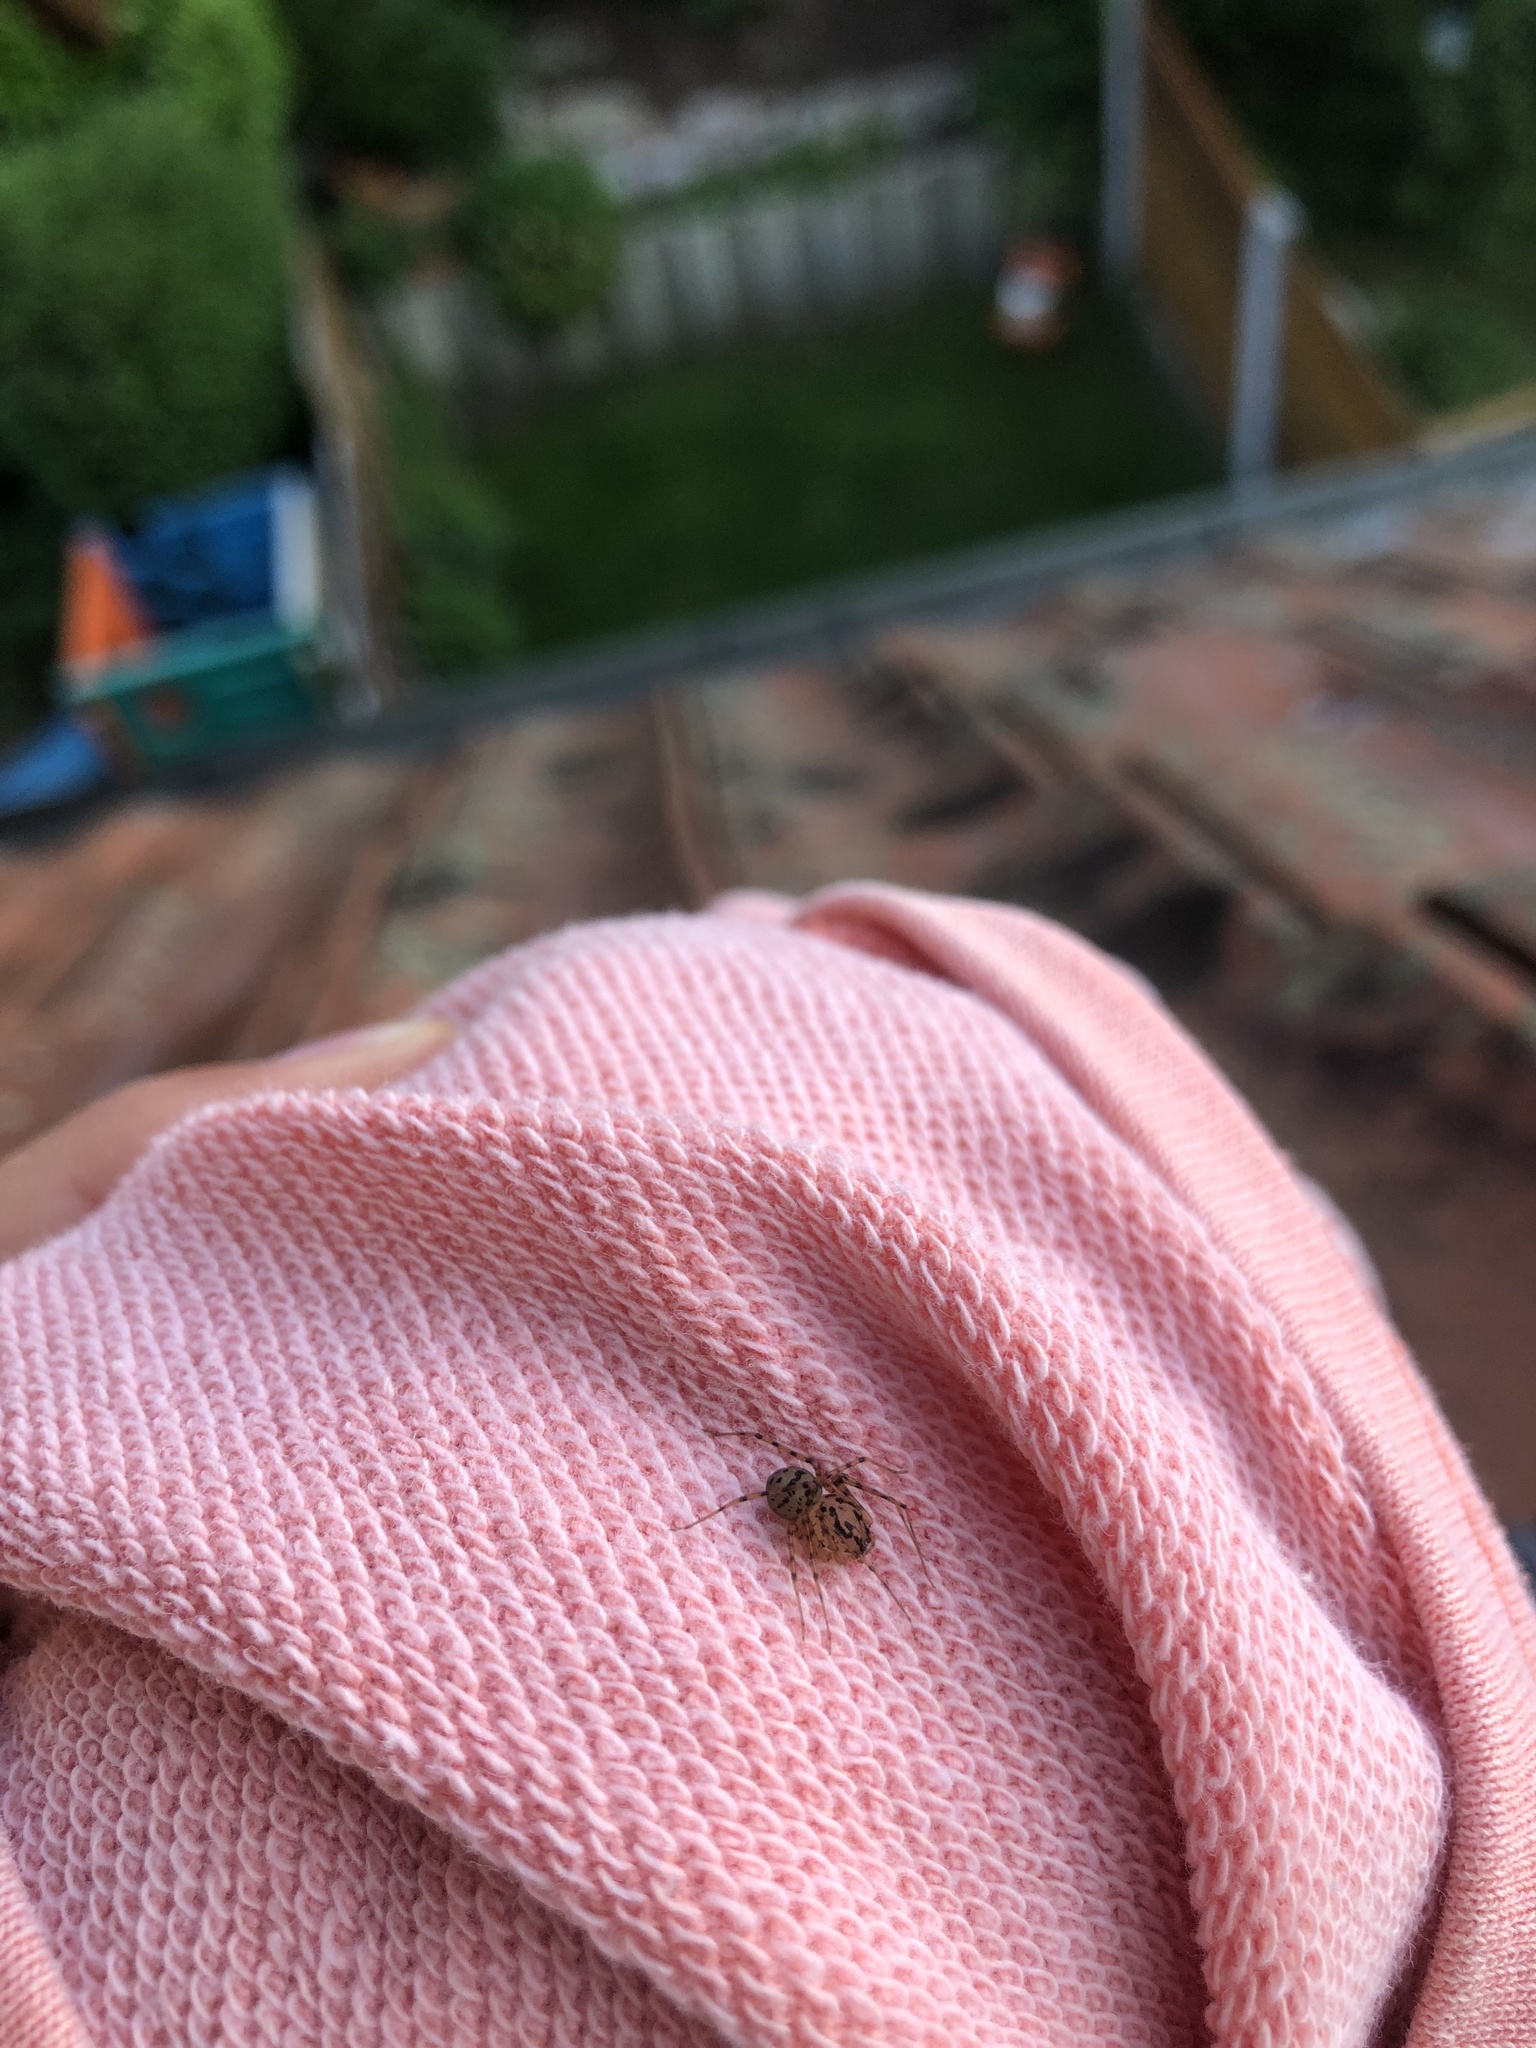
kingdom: Animalia
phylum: Arthropoda
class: Arachnida
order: Araneae
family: Scytodidae
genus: Scytodes
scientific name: Scytodes thoracica
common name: Spitting spider
